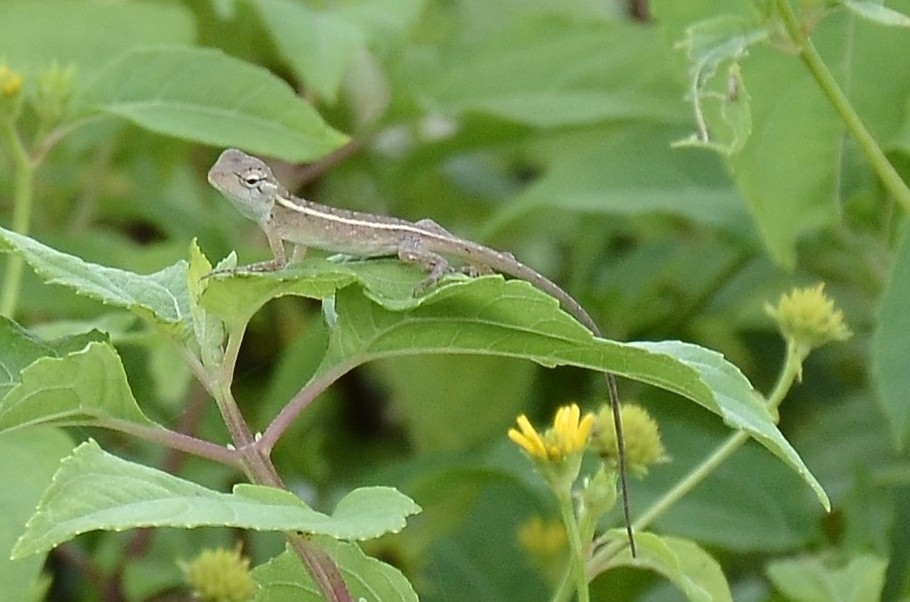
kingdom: Animalia
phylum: Chordata
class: Squamata
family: Agamidae
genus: Calotes
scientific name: Calotes versicolor
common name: Oriental garden lizard
